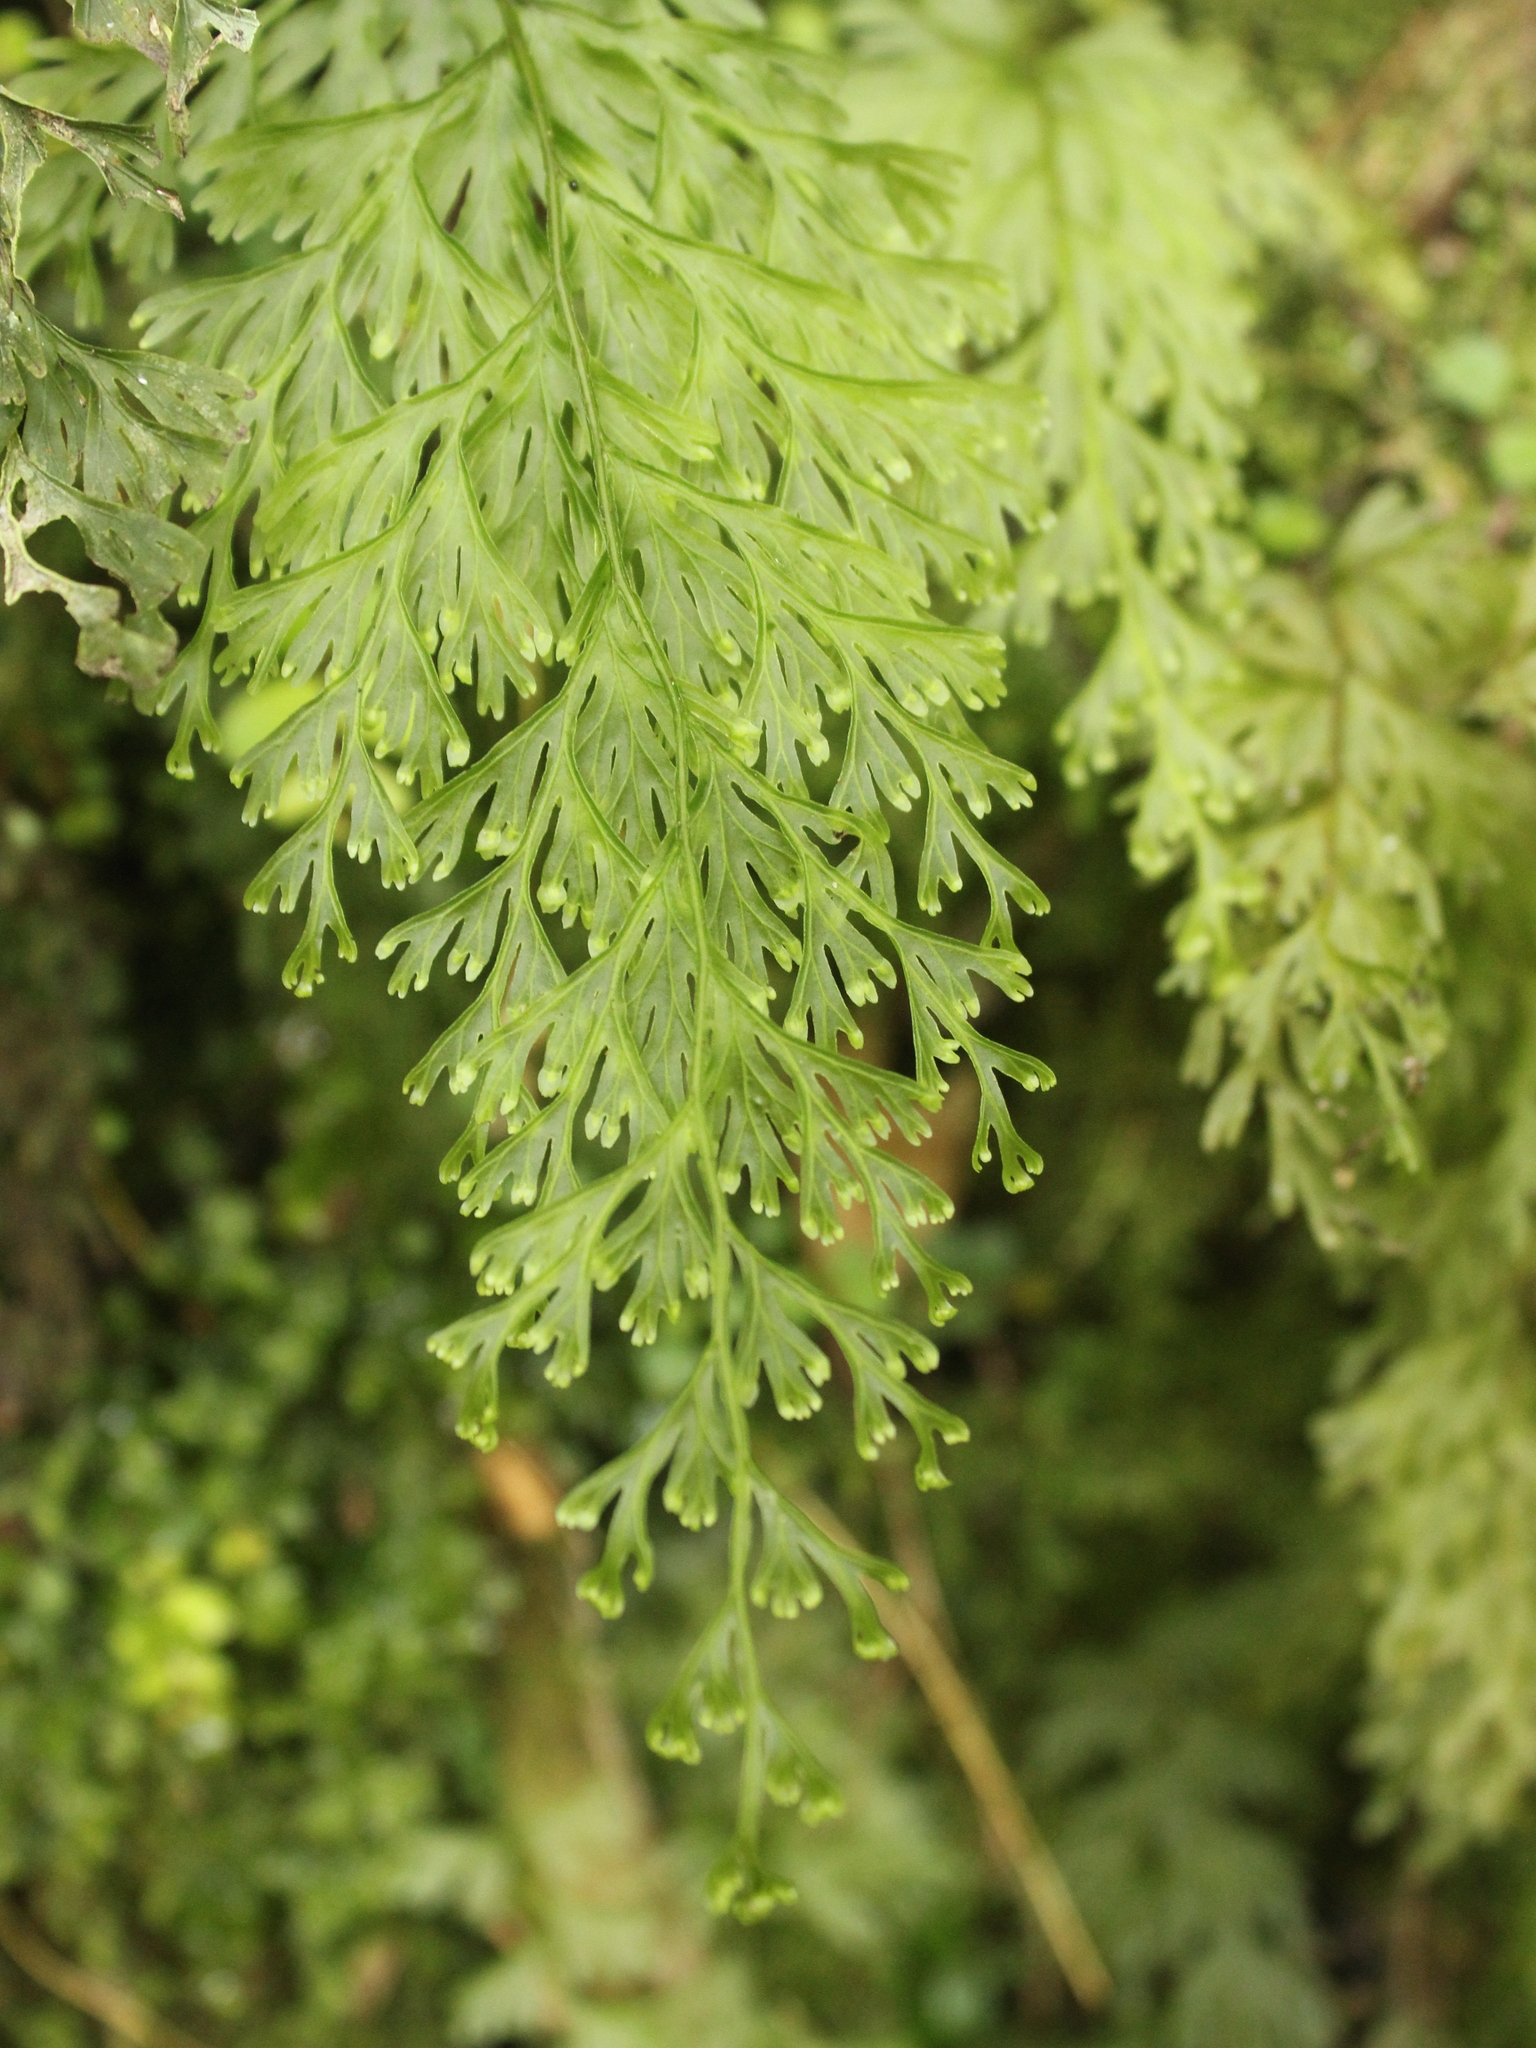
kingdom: Plantae
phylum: Tracheophyta
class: Polypodiopsida
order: Hymenophyllales
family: Hymenophyllaceae
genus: Hymenophyllum
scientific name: Hymenophyllum demissum
